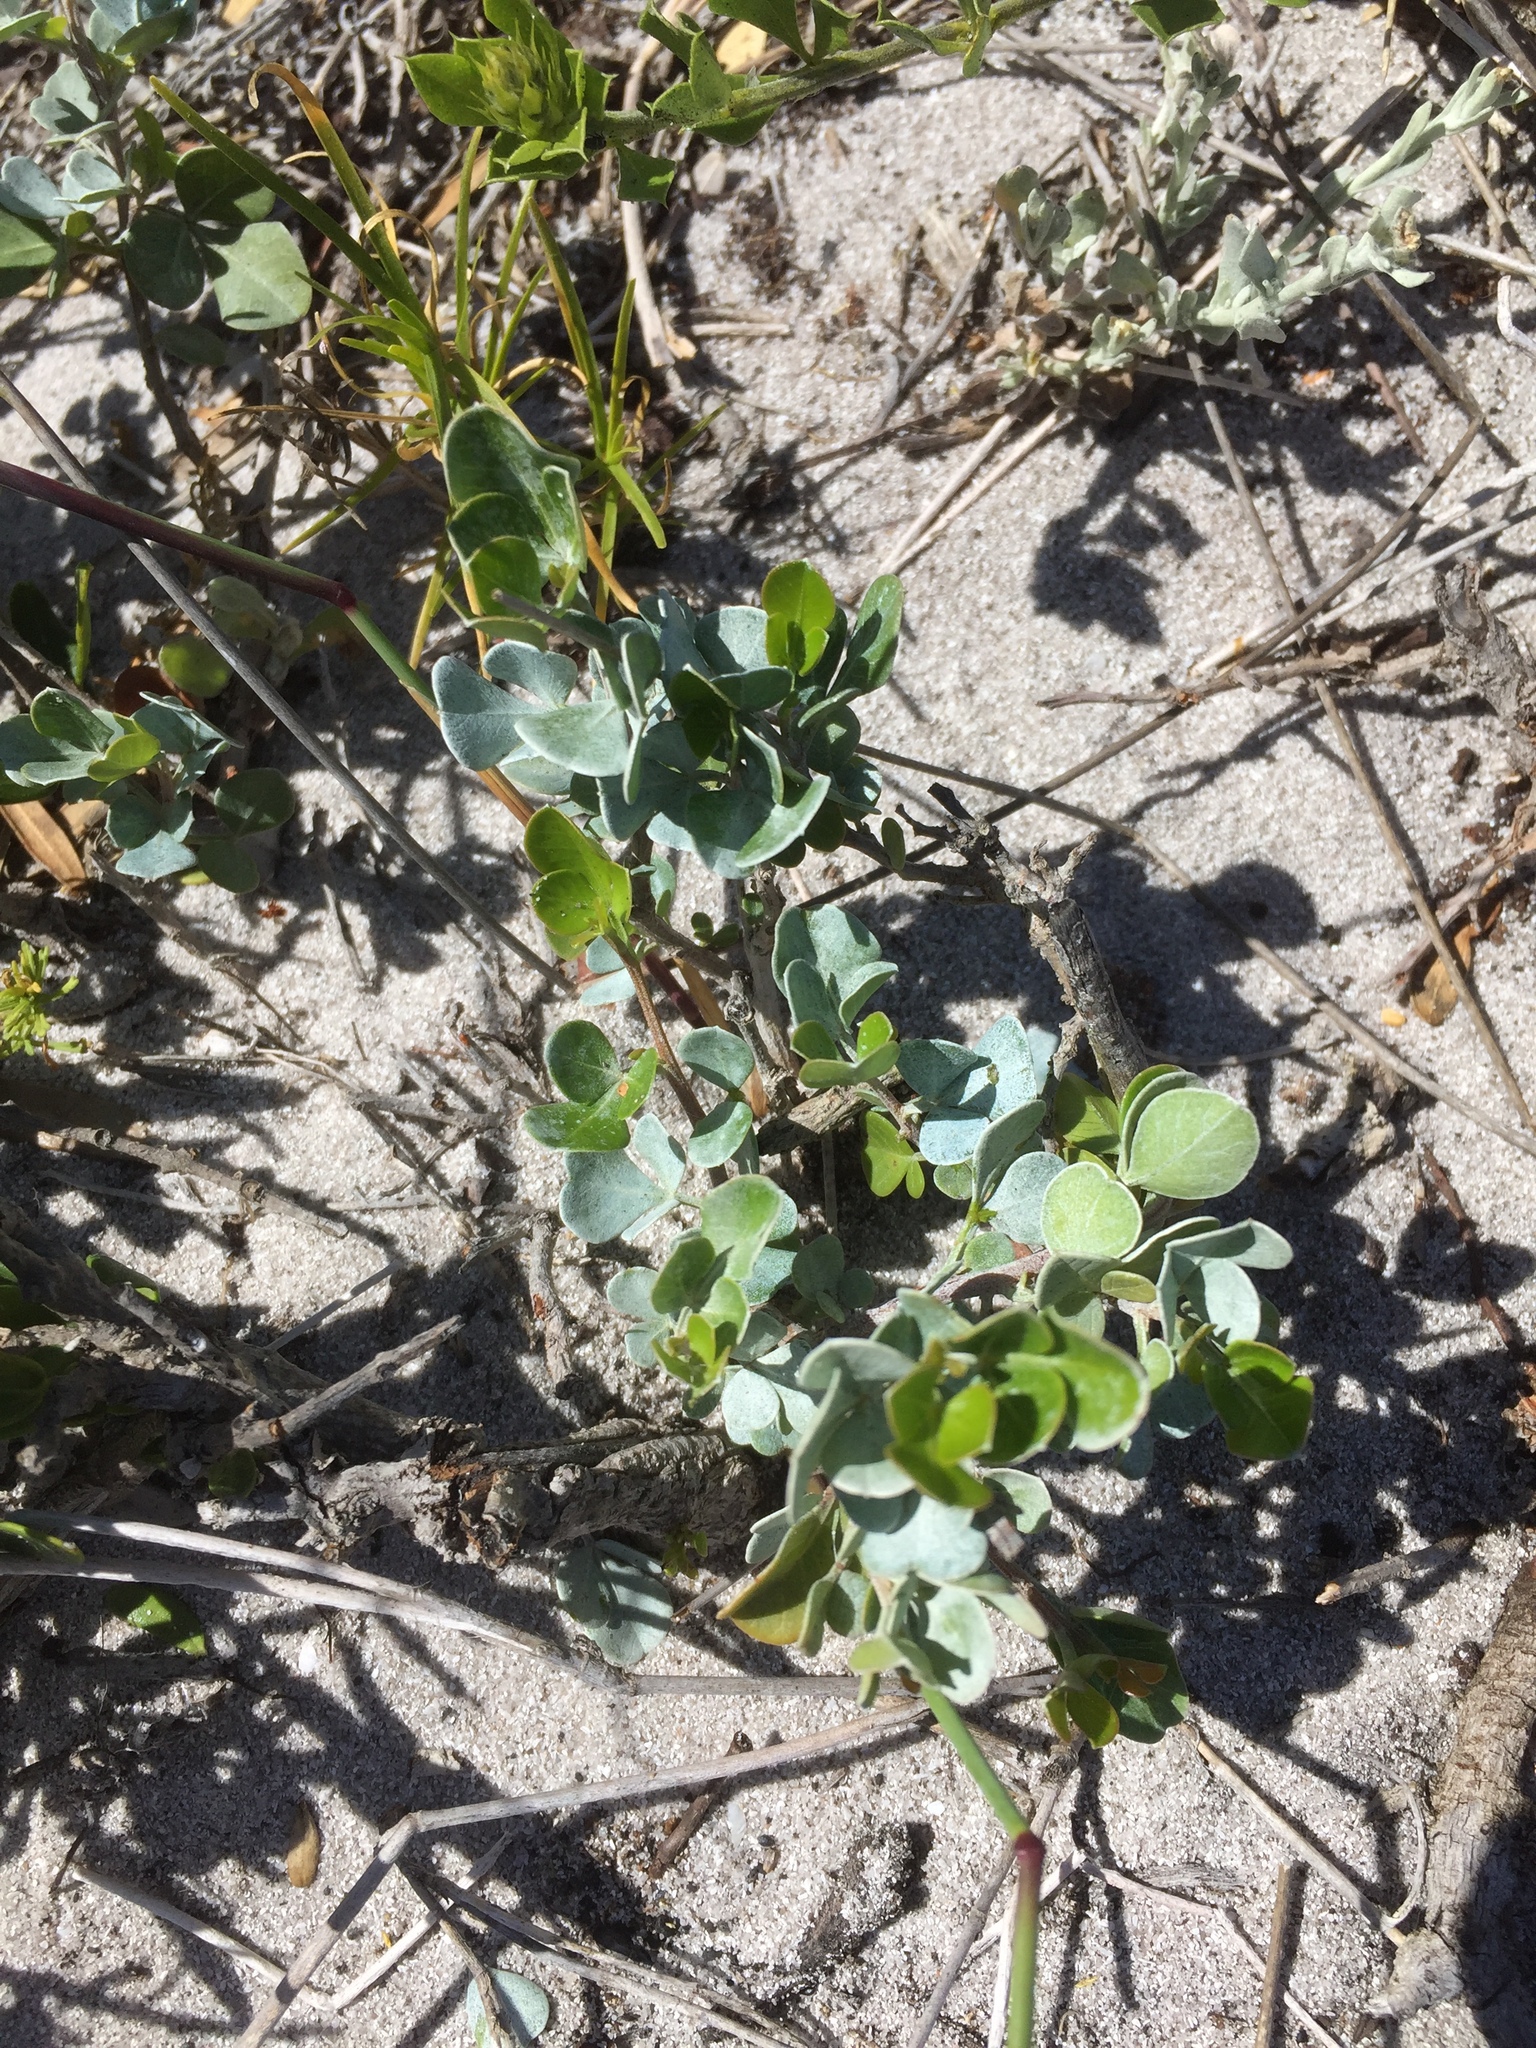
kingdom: Plantae
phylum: Tracheophyta
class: Magnoliopsida
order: Sapindales
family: Anacardiaceae
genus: Searsia
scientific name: Searsia glauca
